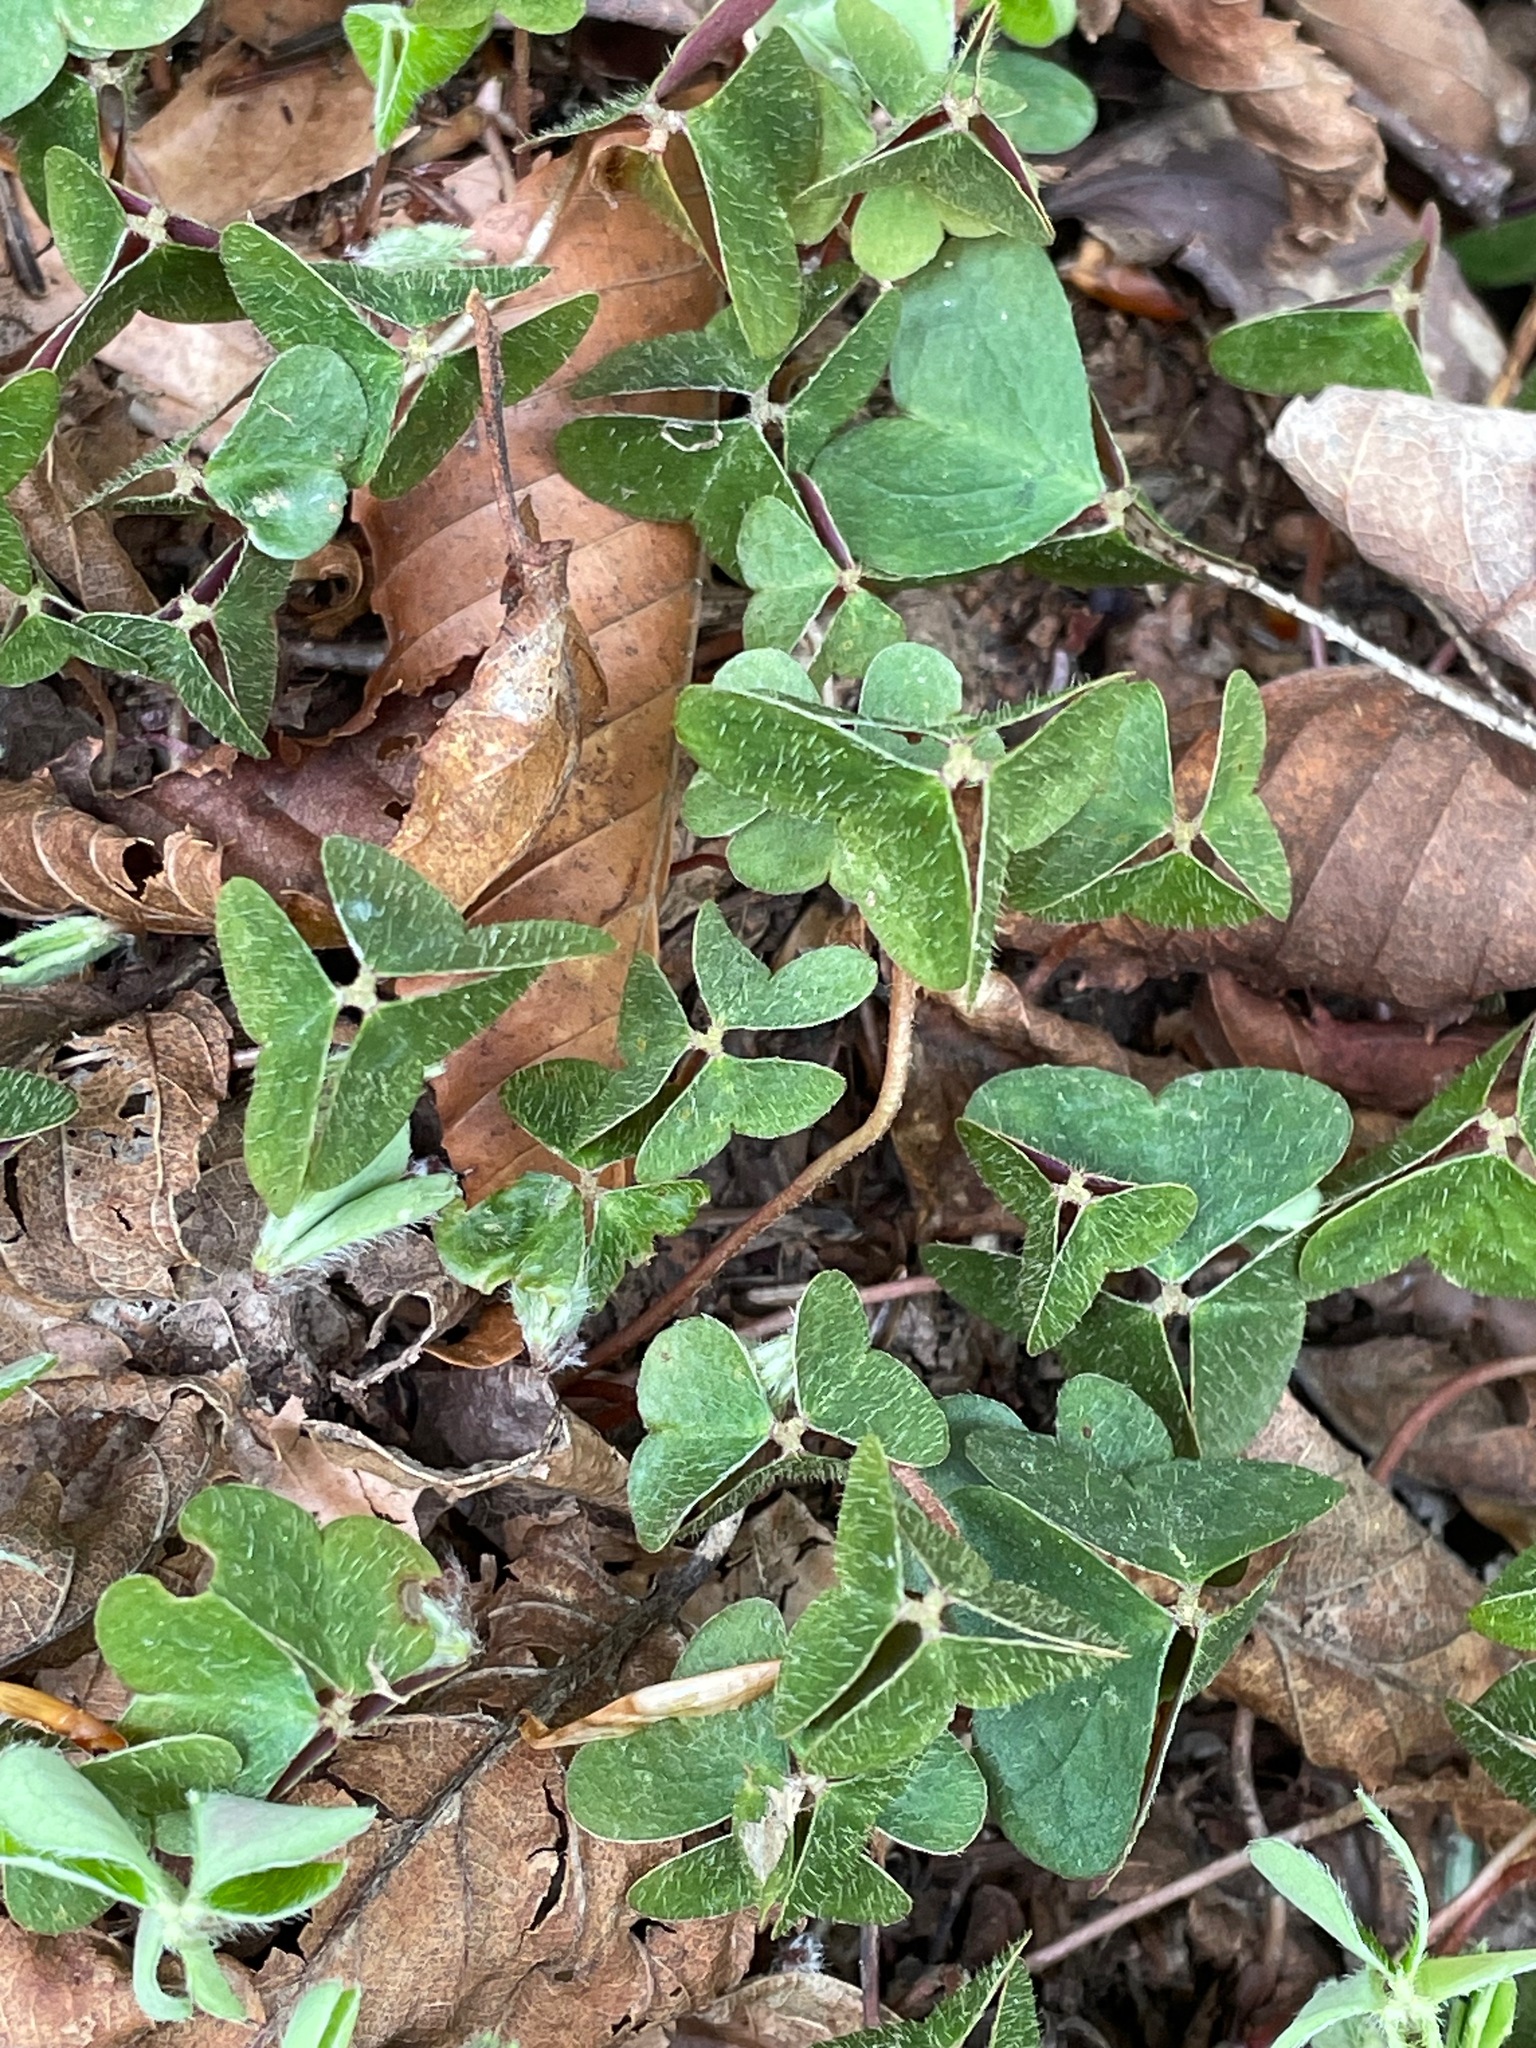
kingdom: Plantae
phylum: Tracheophyta
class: Magnoliopsida
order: Oxalidales
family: Oxalidaceae
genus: Oxalis
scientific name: Oxalis montana
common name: American wood-sorrel
